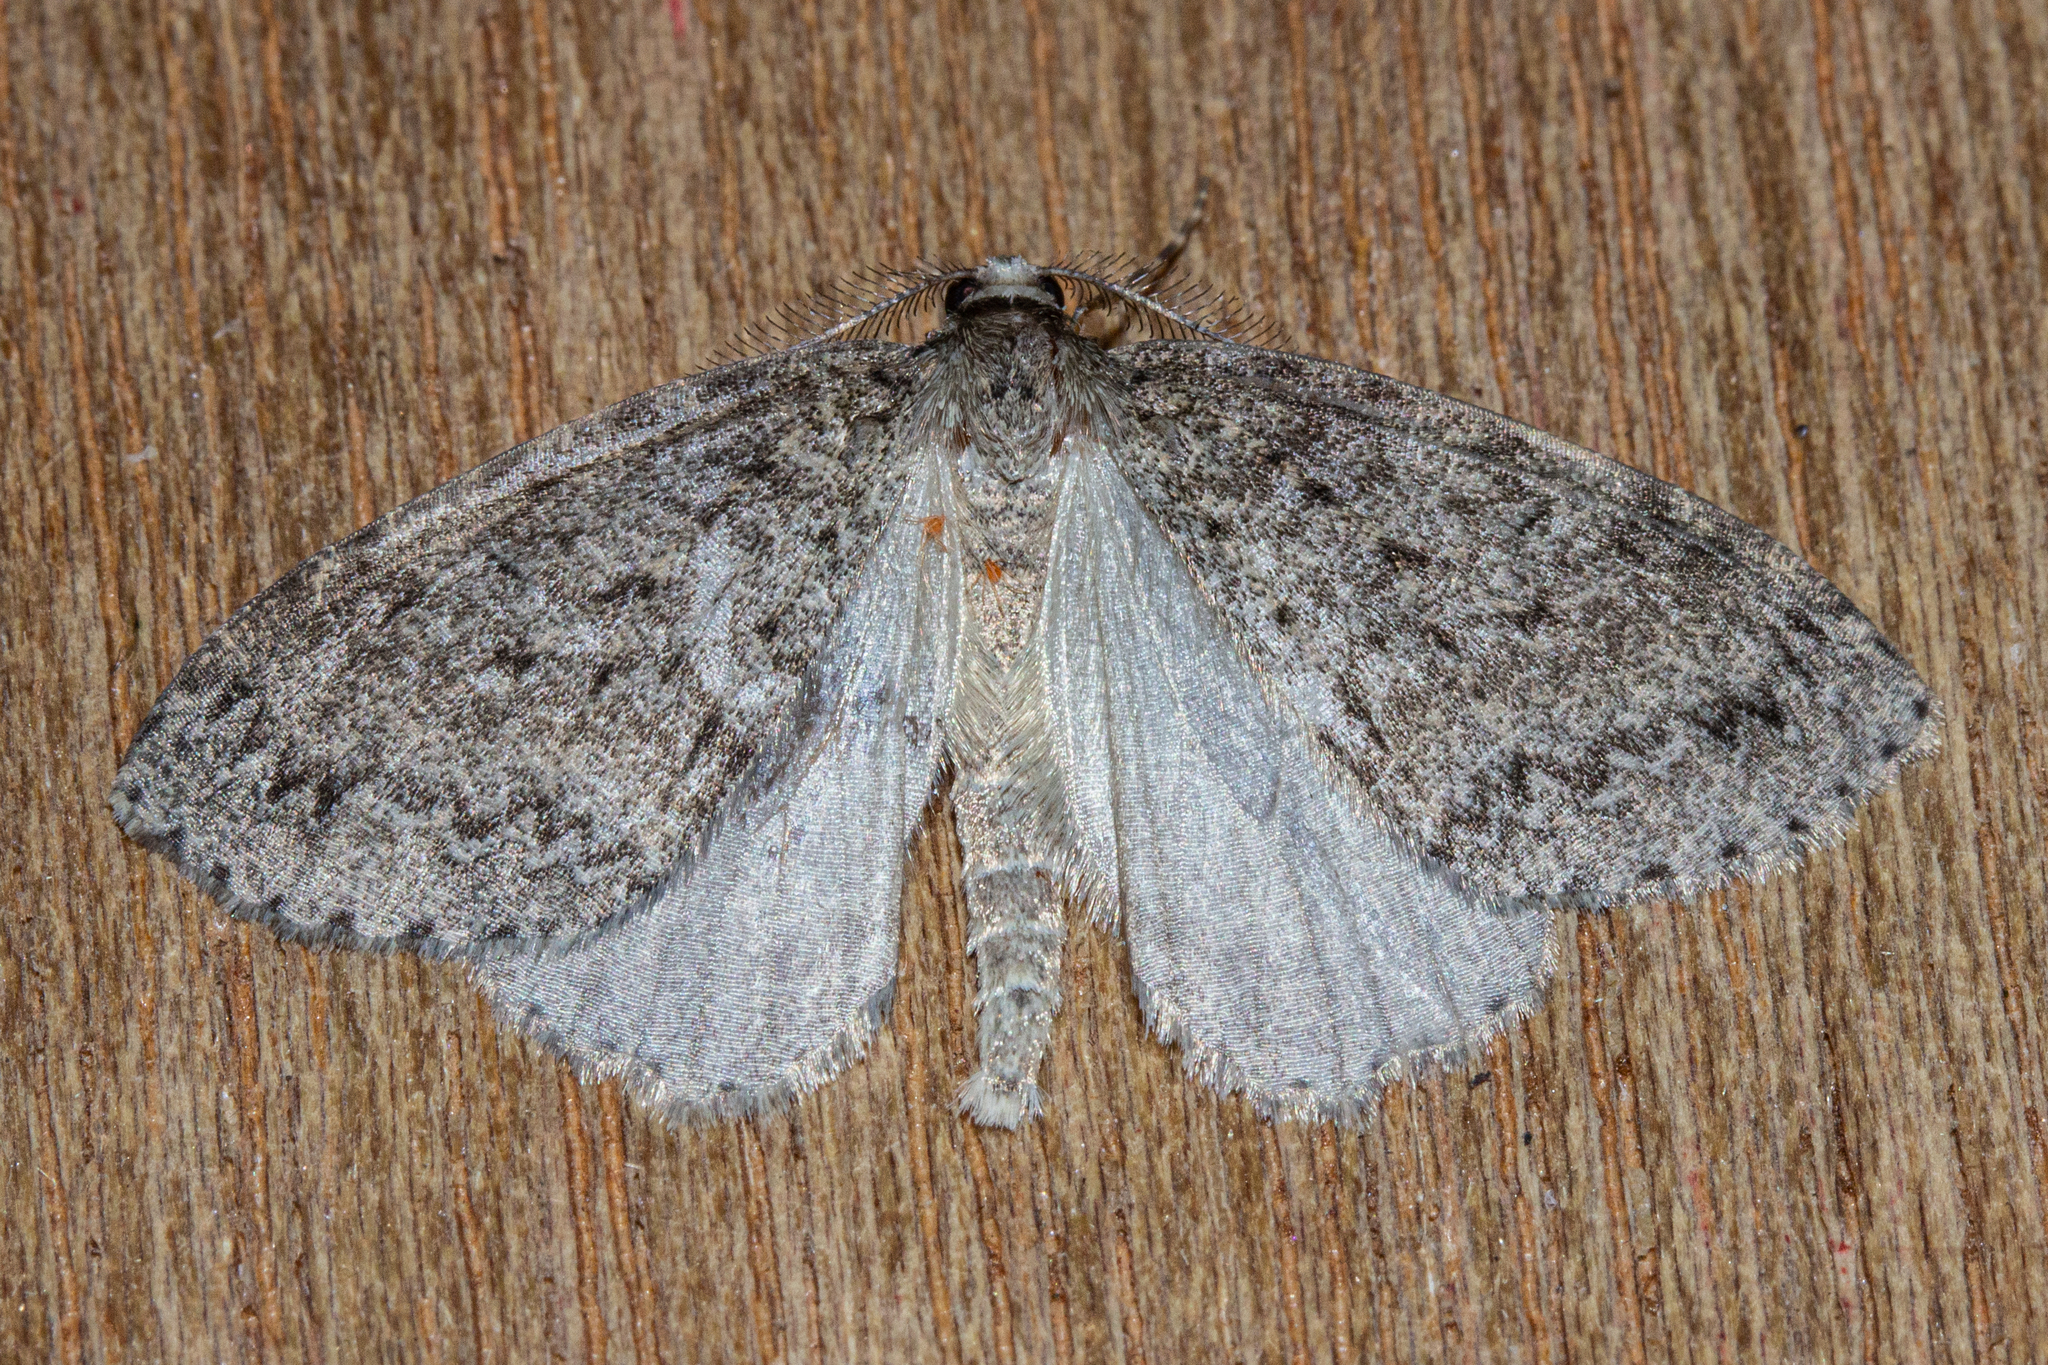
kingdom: Animalia
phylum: Arthropoda
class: Insecta
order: Lepidoptera
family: Geometridae
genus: Pseudocoremia
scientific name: Pseudocoremia fenerata
